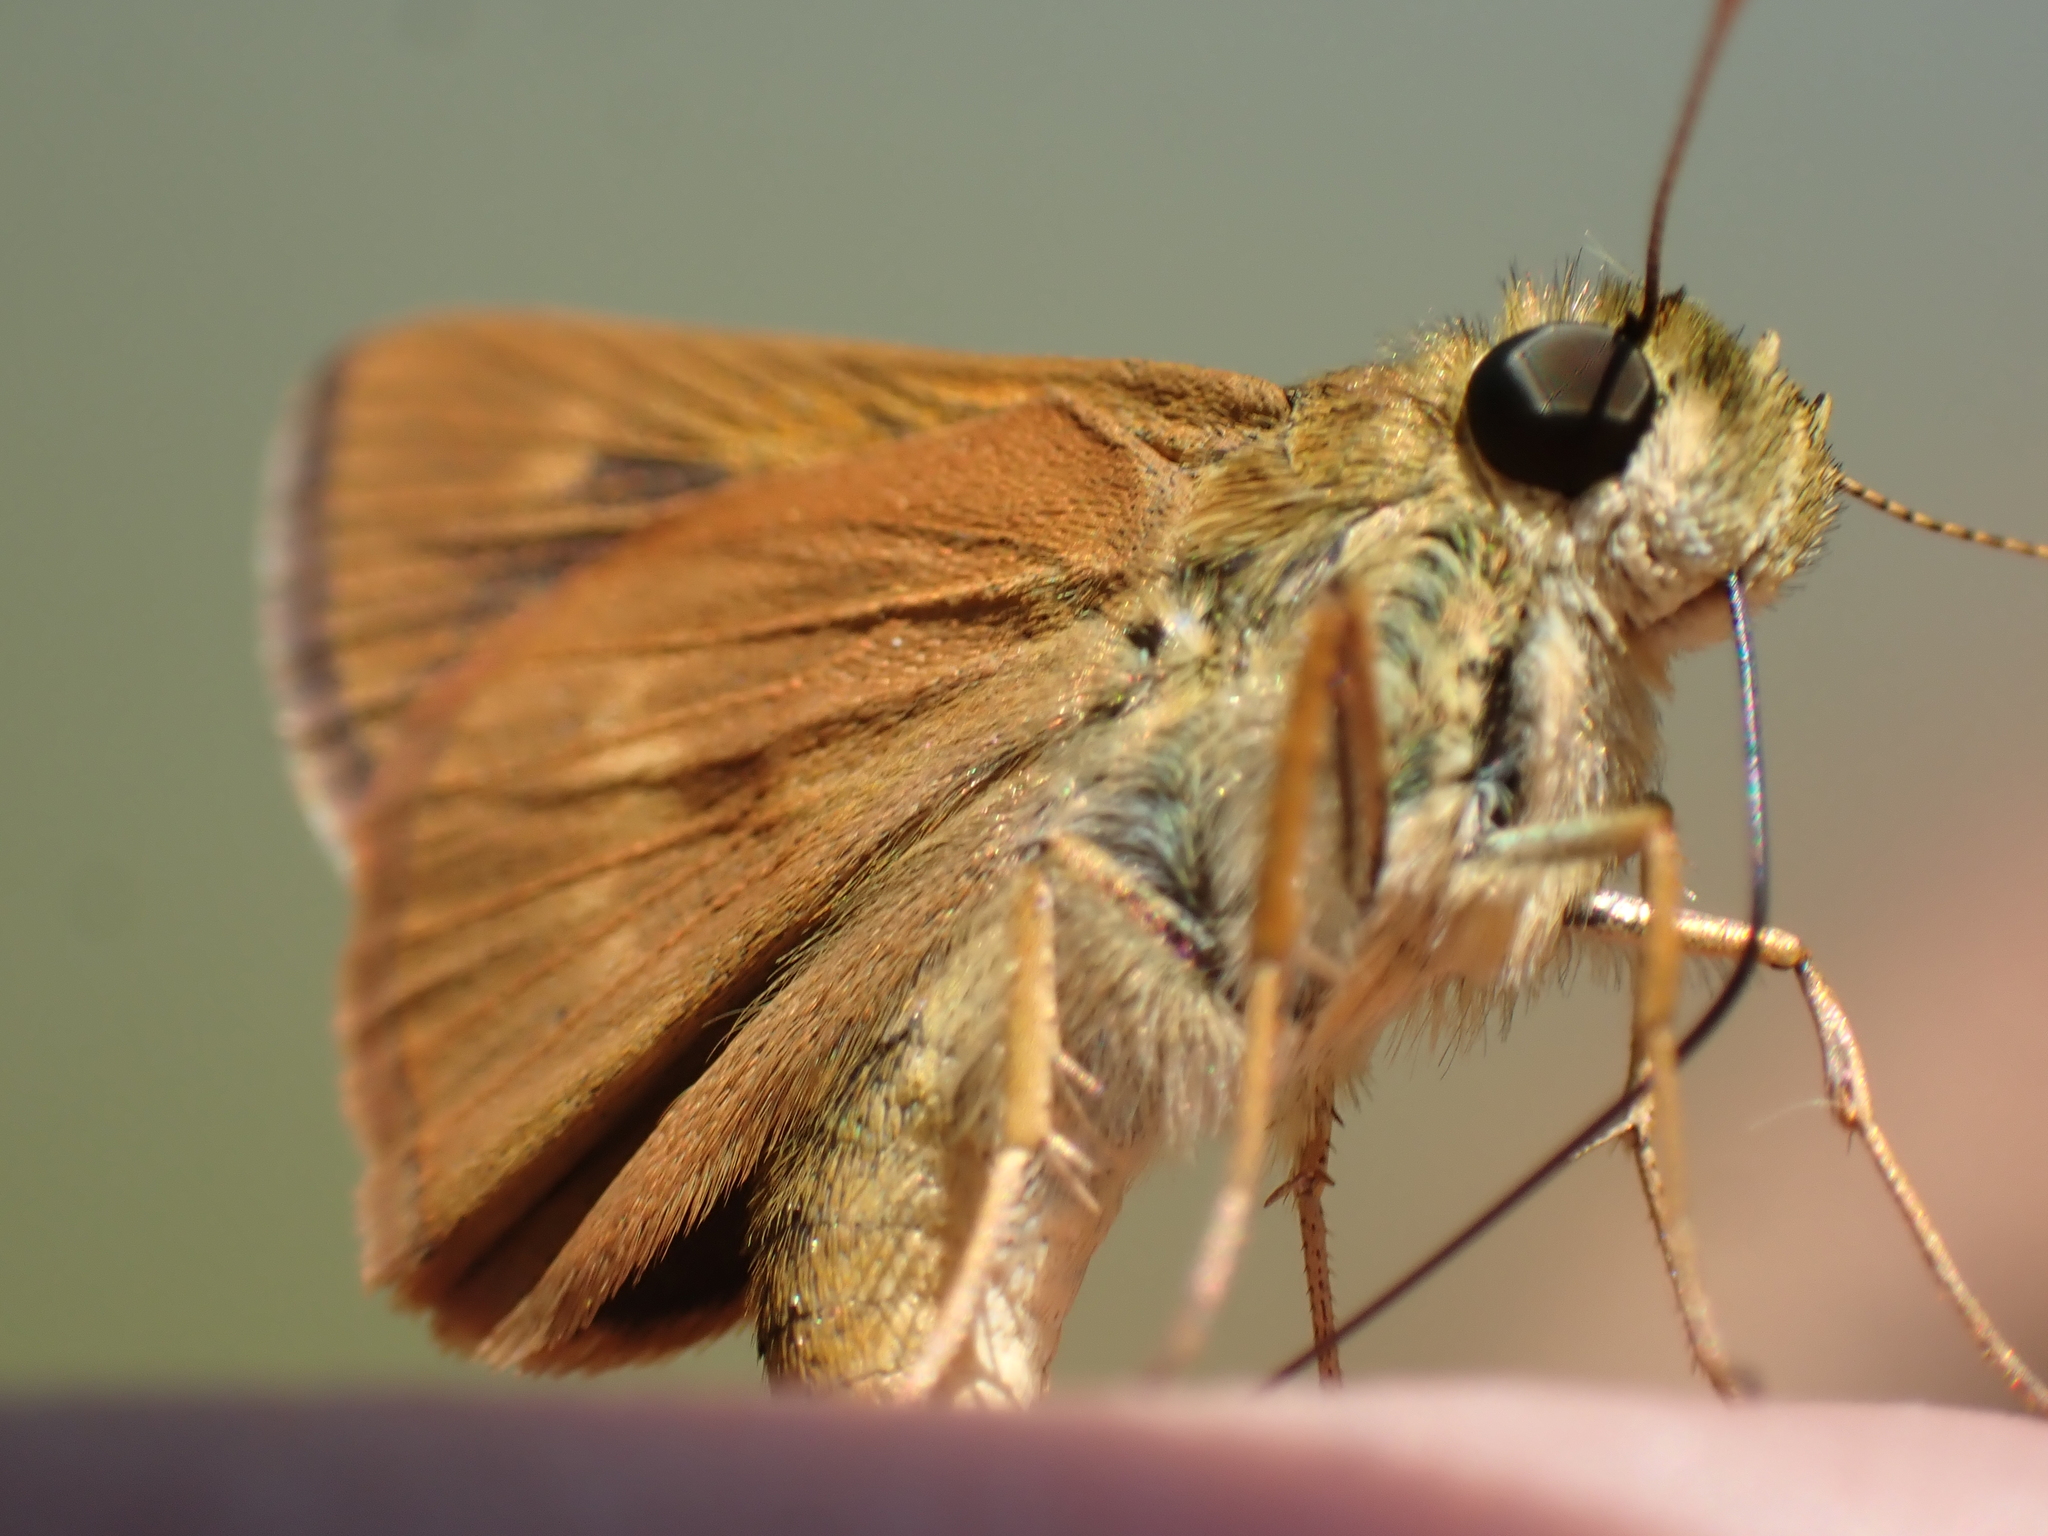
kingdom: Animalia
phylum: Arthropoda
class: Insecta
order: Lepidoptera
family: Hesperiidae
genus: Polites
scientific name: Polites otho
